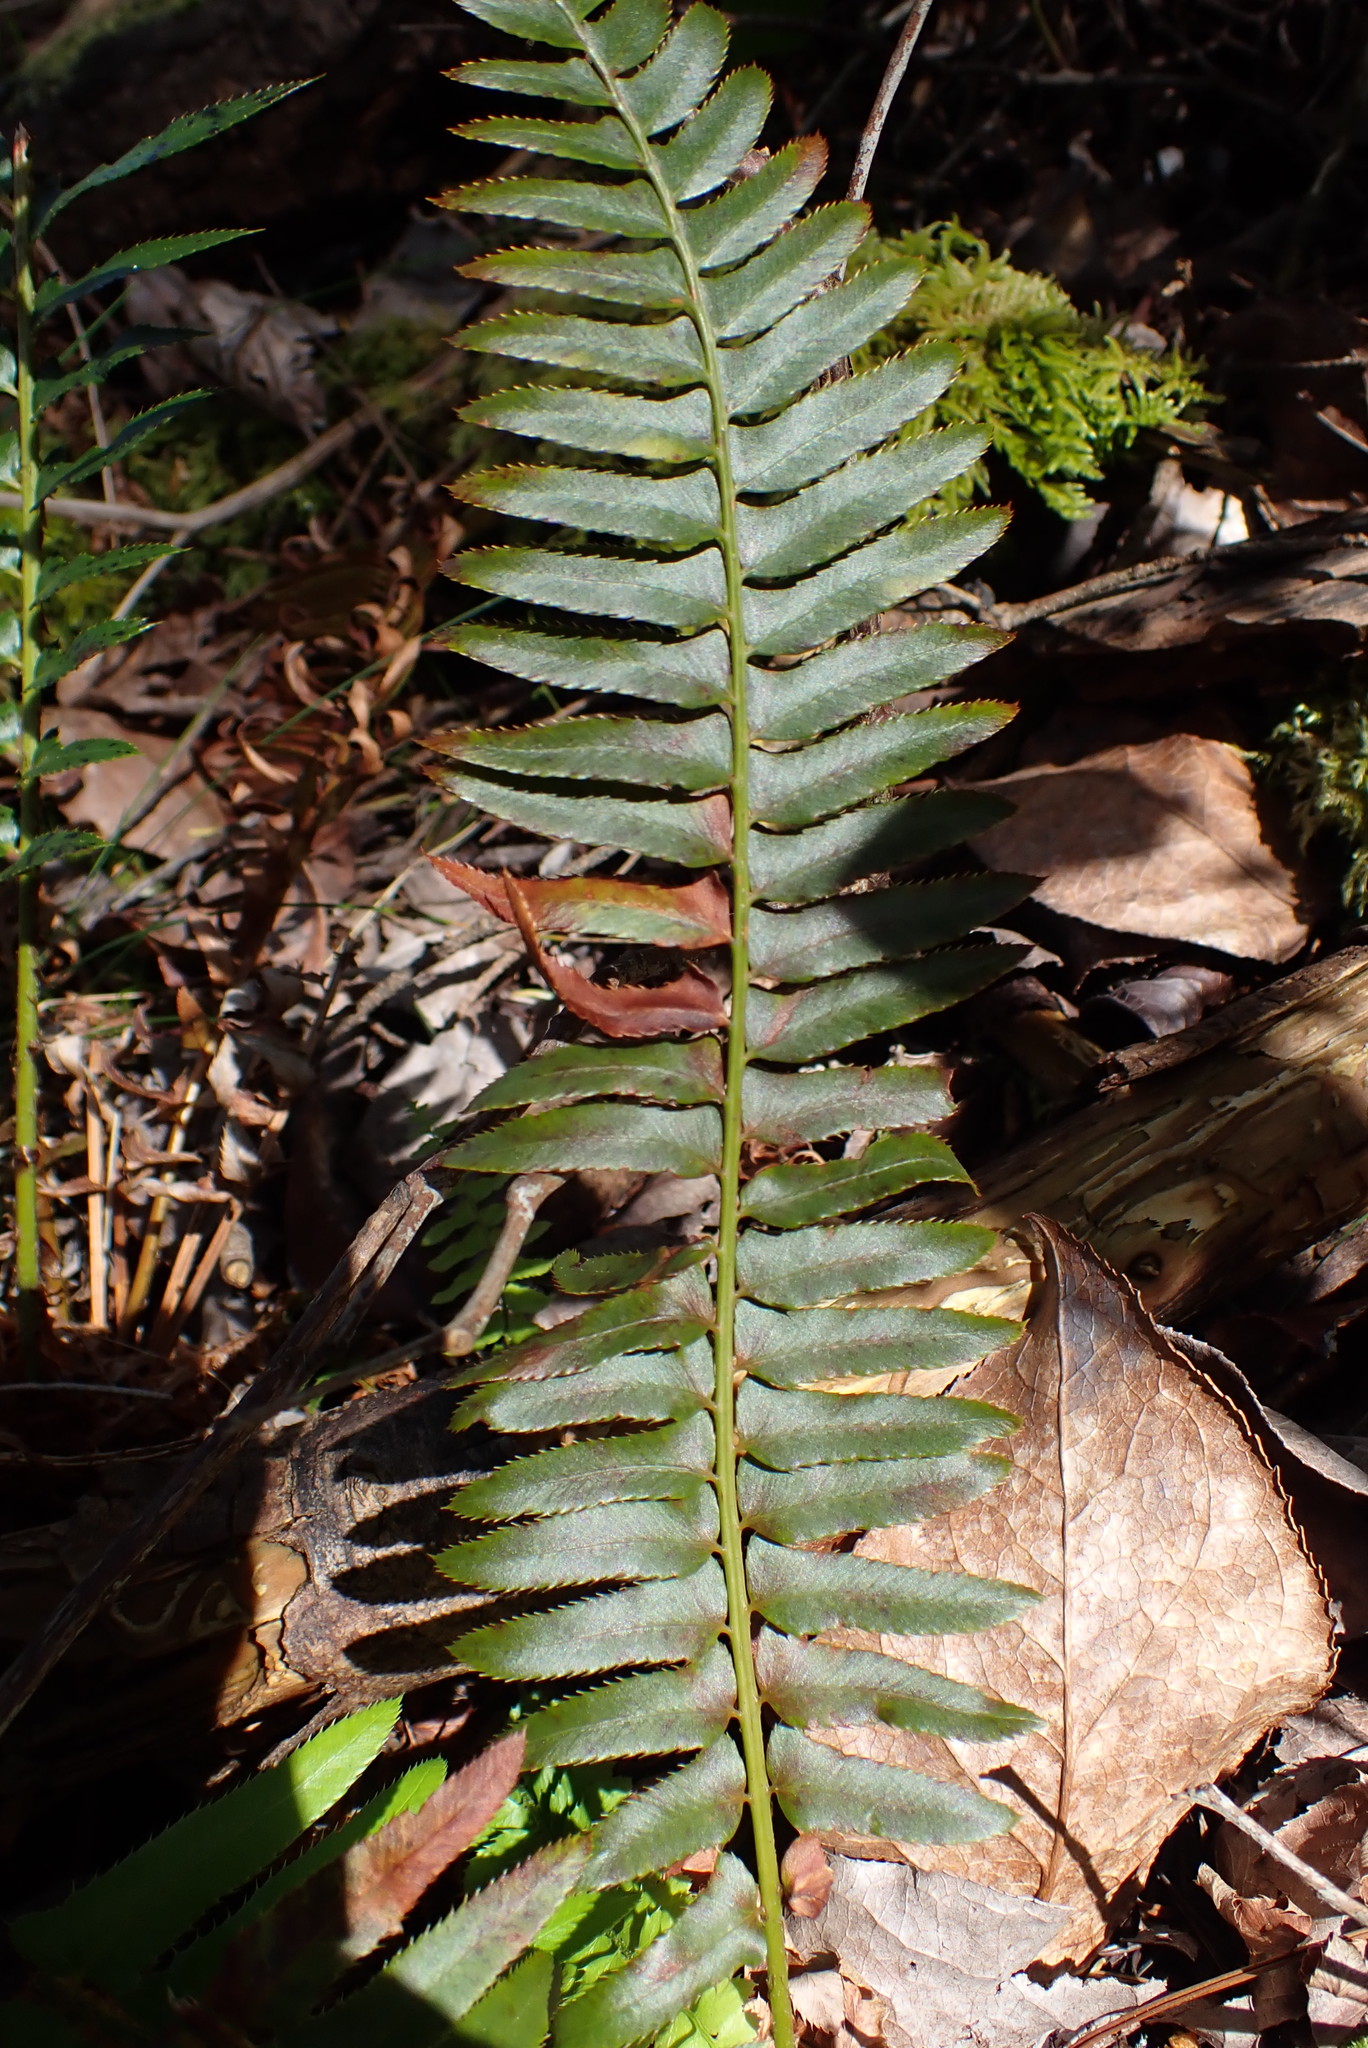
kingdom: Plantae
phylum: Tracheophyta
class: Polypodiopsida
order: Polypodiales
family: Dryopteridaceae
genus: Polystichum
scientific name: Polystichum munitum
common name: Western sword-fern
